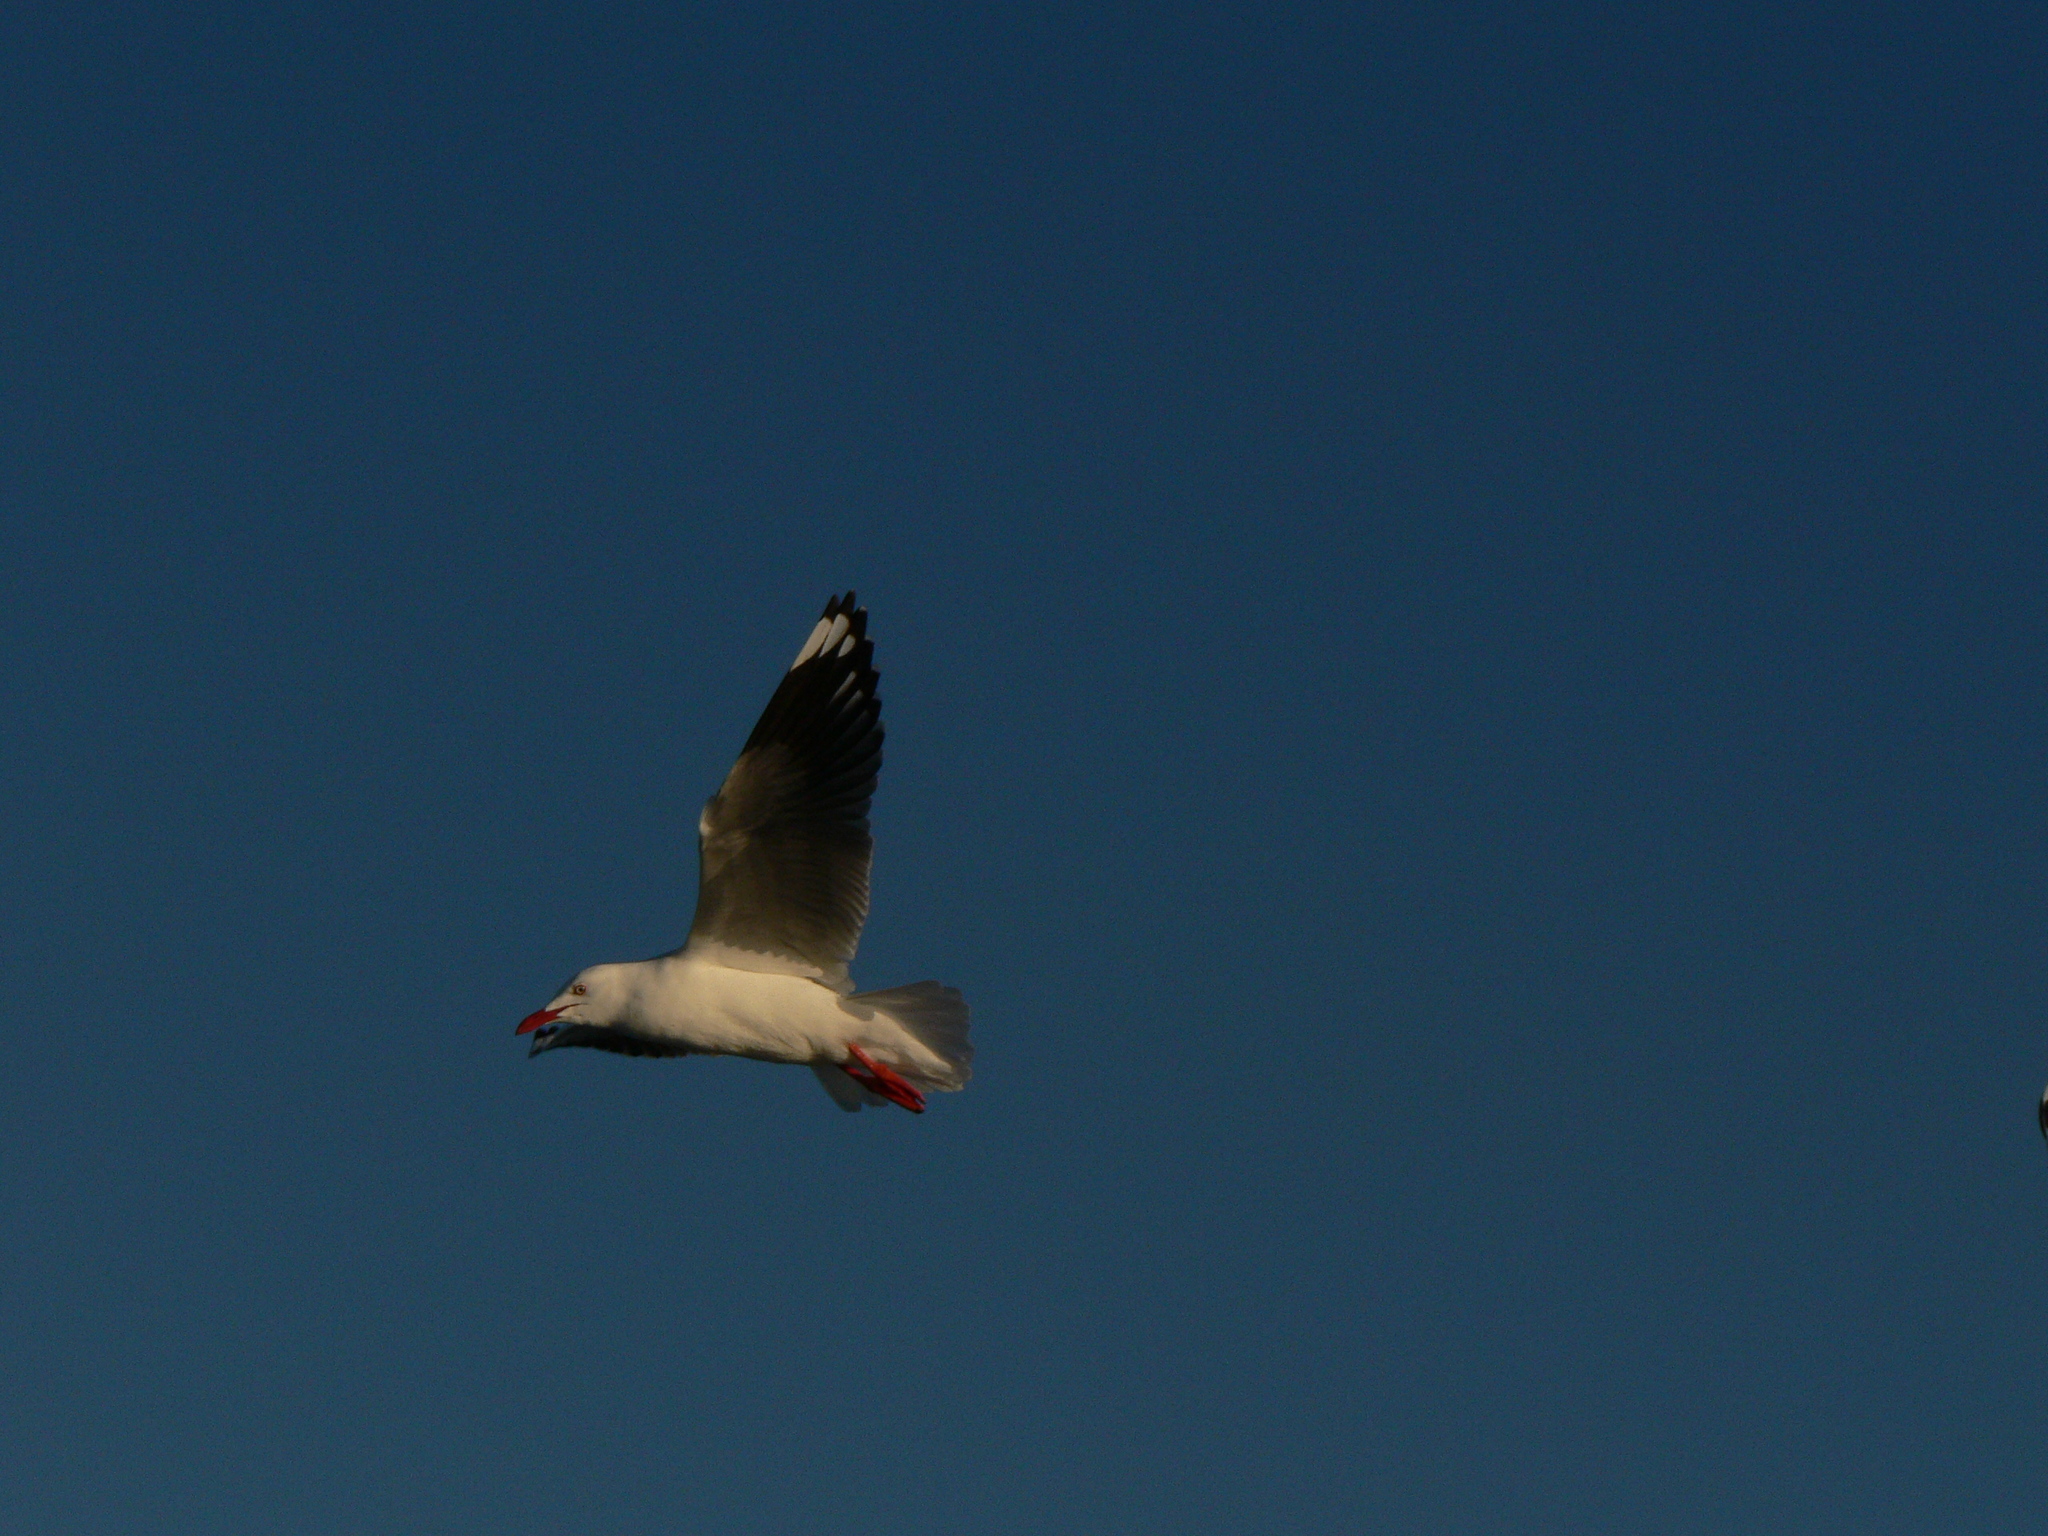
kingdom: Animalia
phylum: Chordata
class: Aves
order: Charadriiformes
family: Laridae
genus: Chroicocephalus
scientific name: Chroicocephalus novaehollandiae
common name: Silver gull
